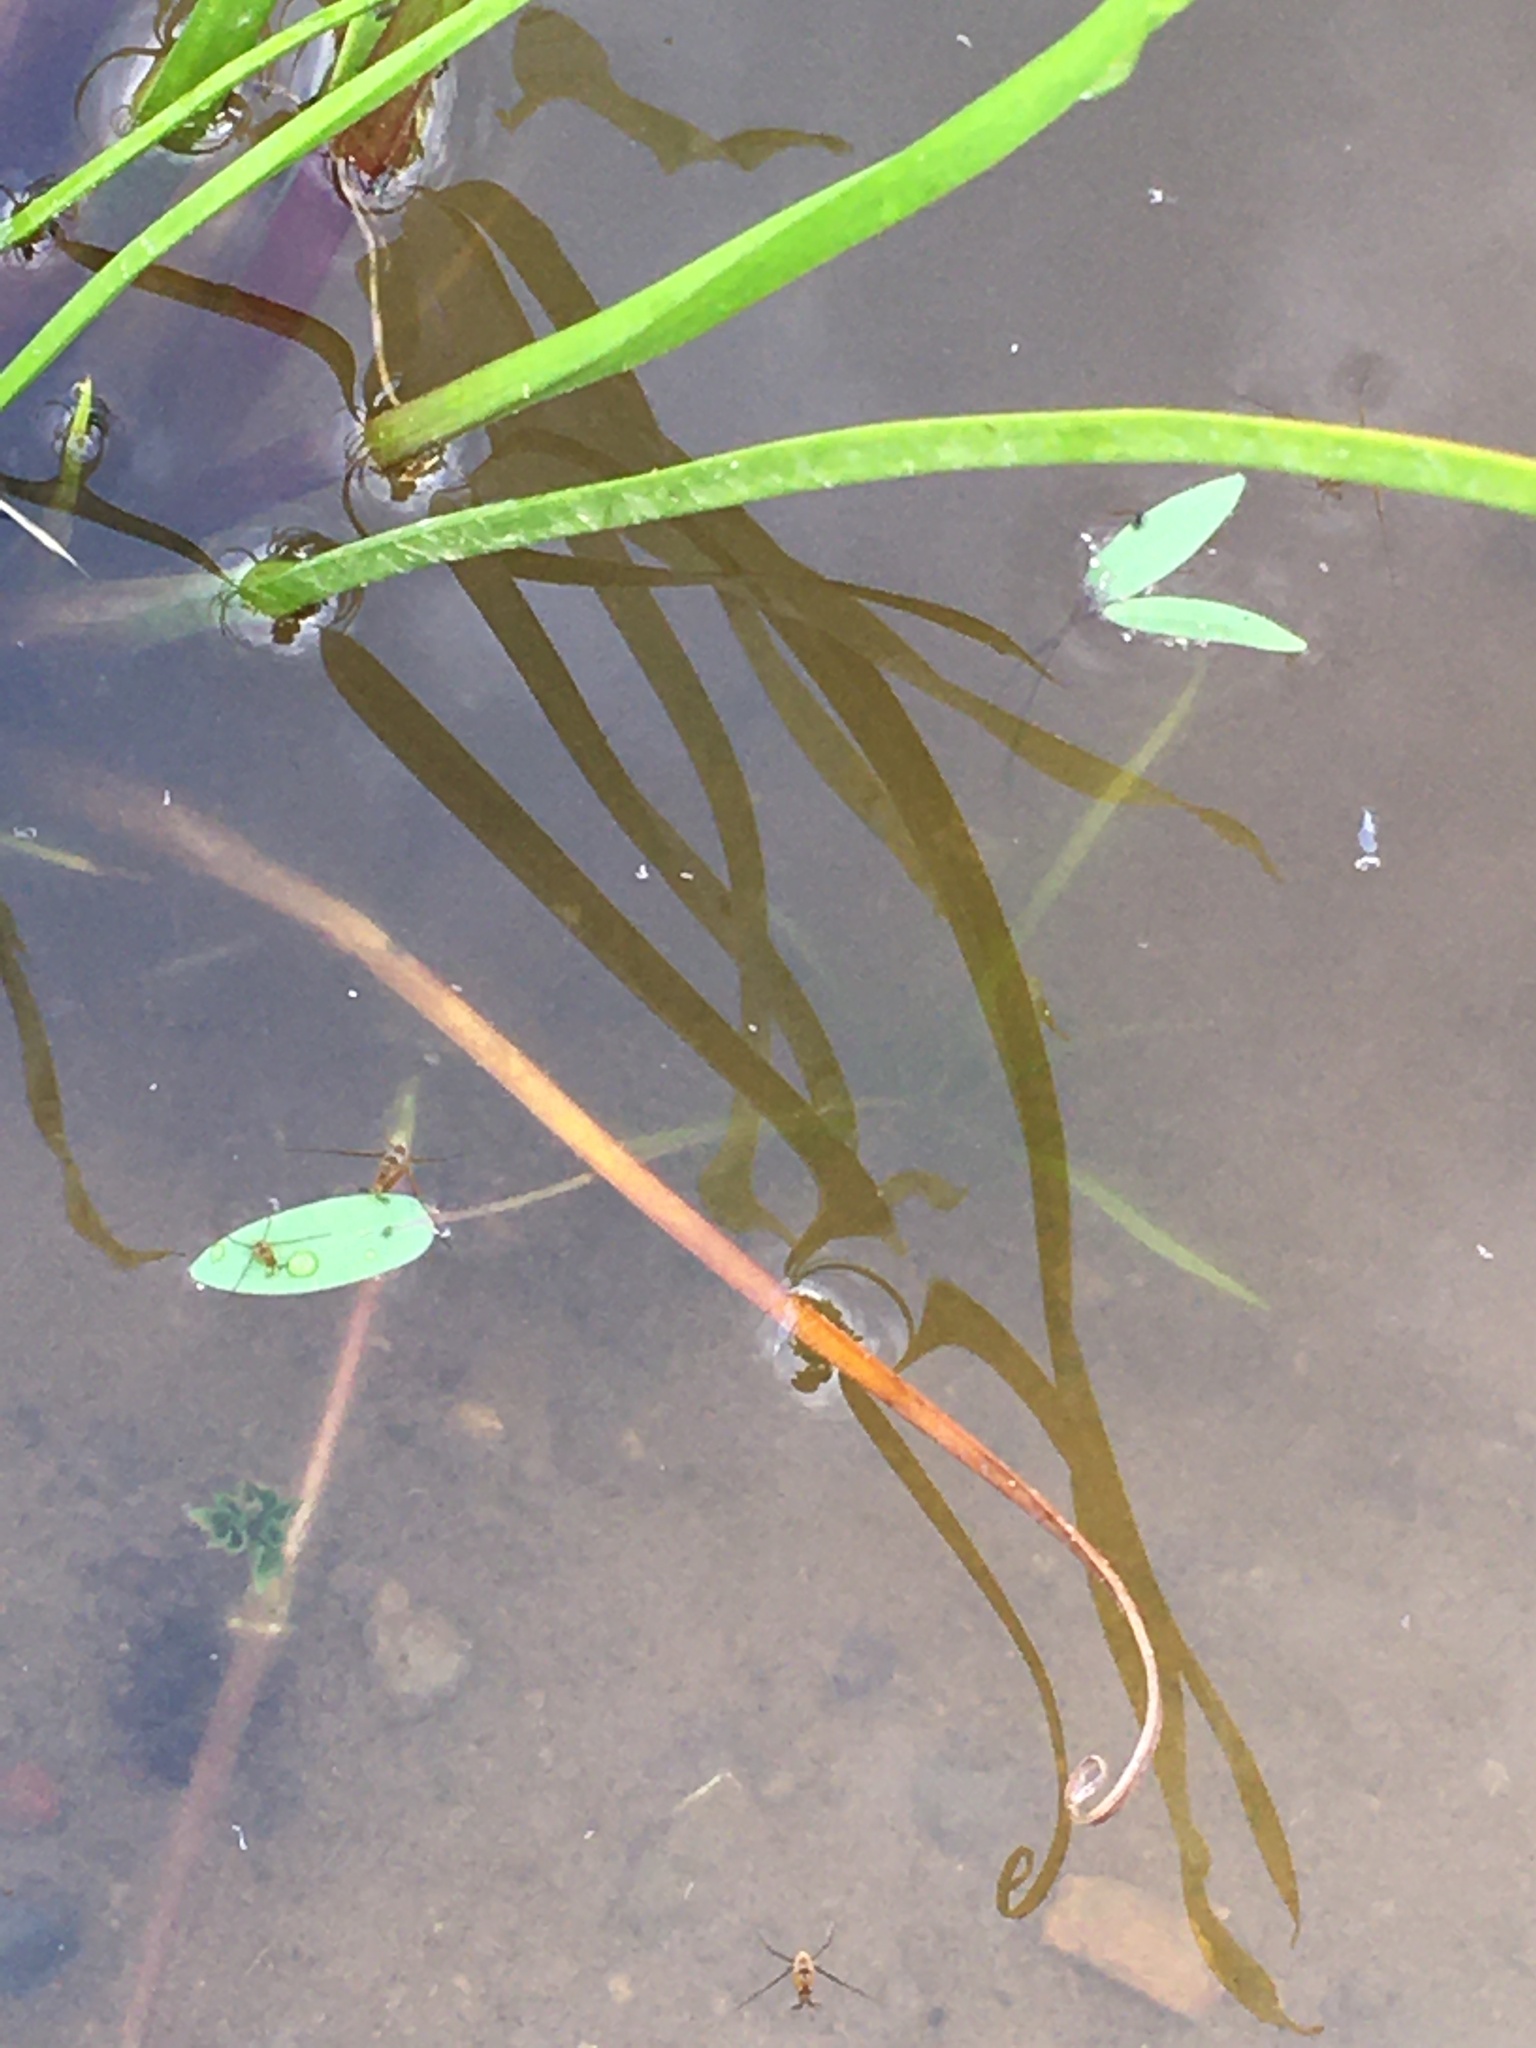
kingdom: Plantae
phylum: Tracheophyta
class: Liliopsida
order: Alismatales
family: Alismataceae
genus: Alisma
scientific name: Alisma plantago-aquatica
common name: Water-plantain
